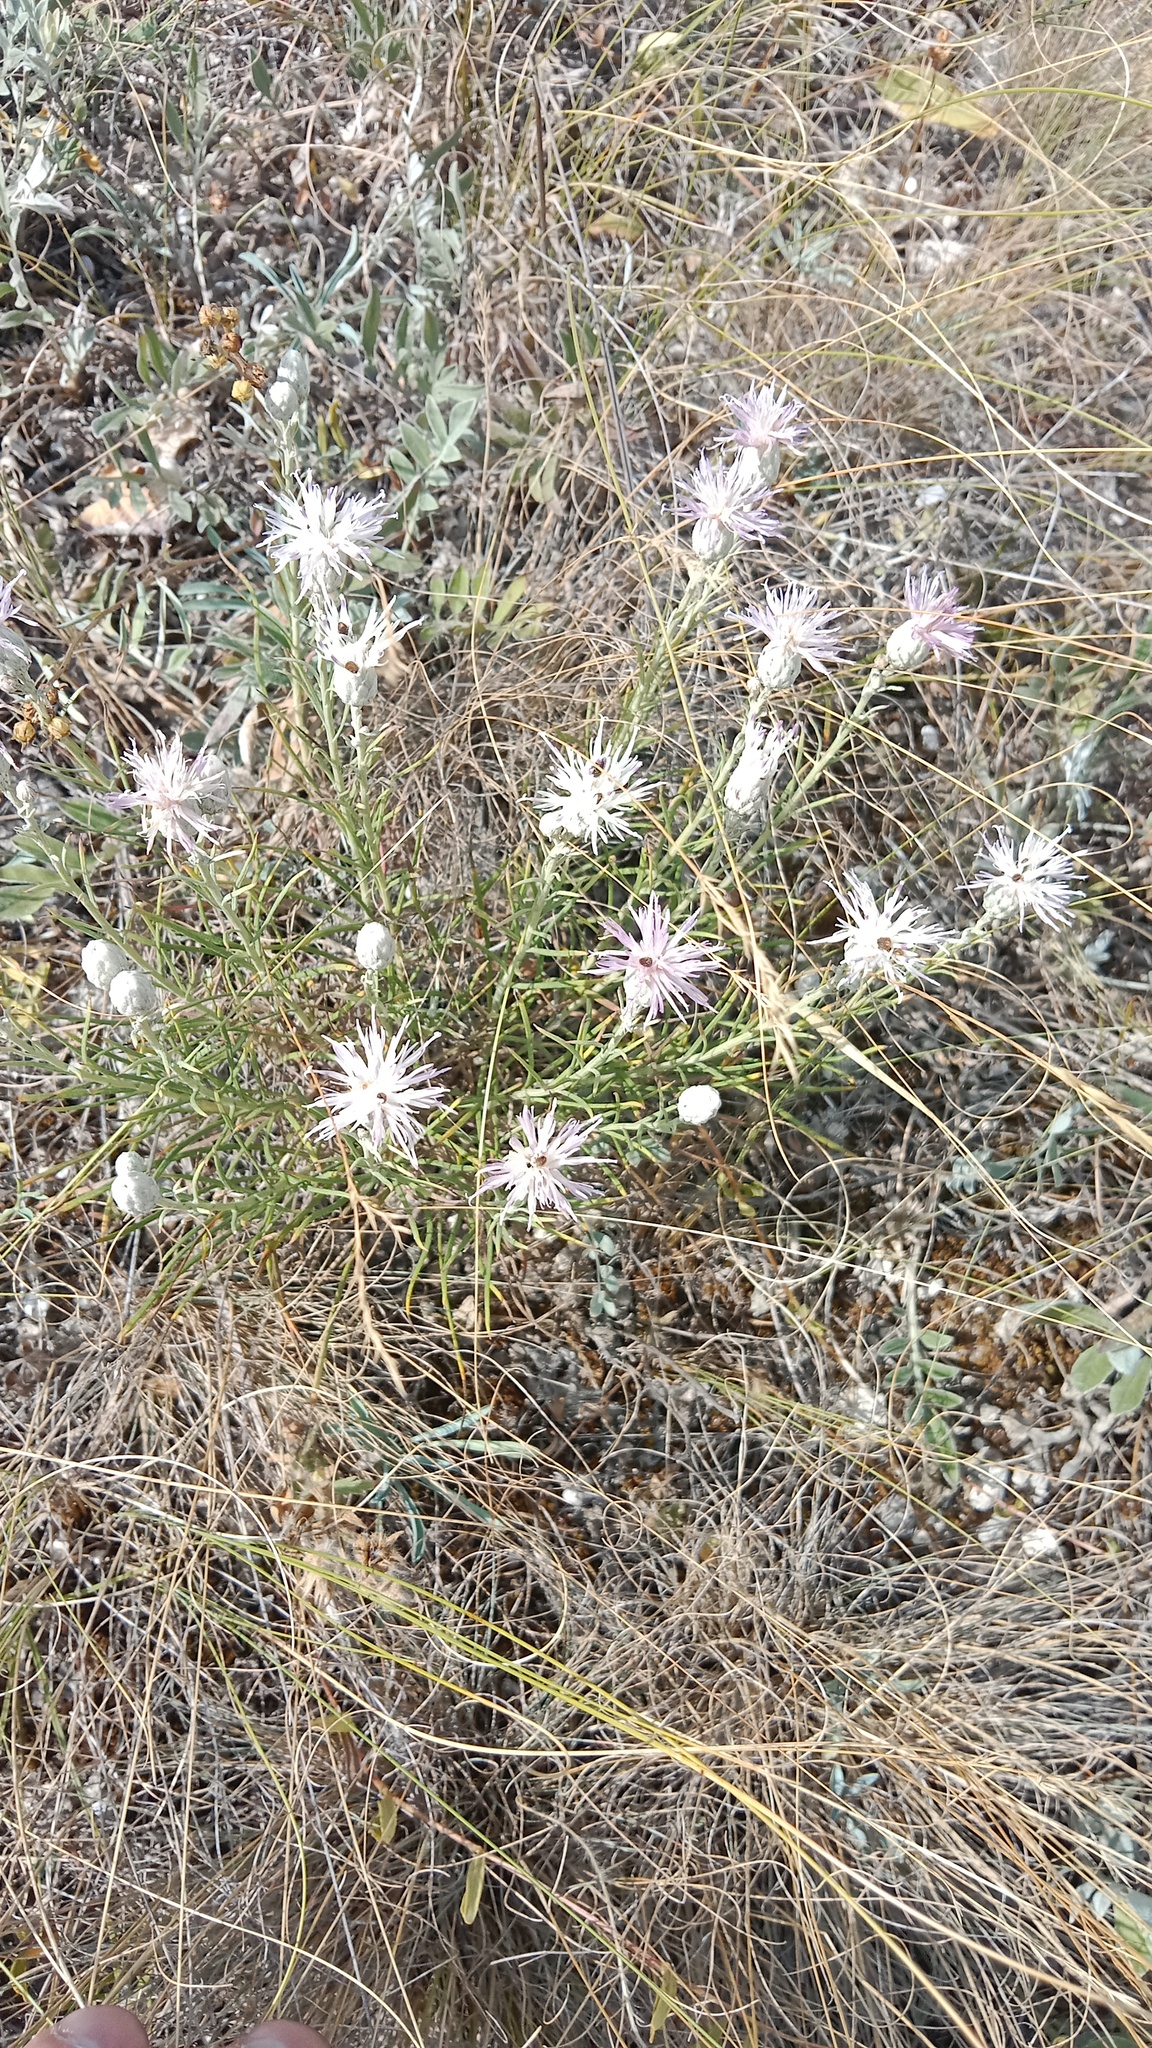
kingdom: Plantae
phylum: Tracheophyta
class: Magnoliopsida
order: Asterales
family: Asteraceae
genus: Jurinea
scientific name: Jurinea stoechadifolia
